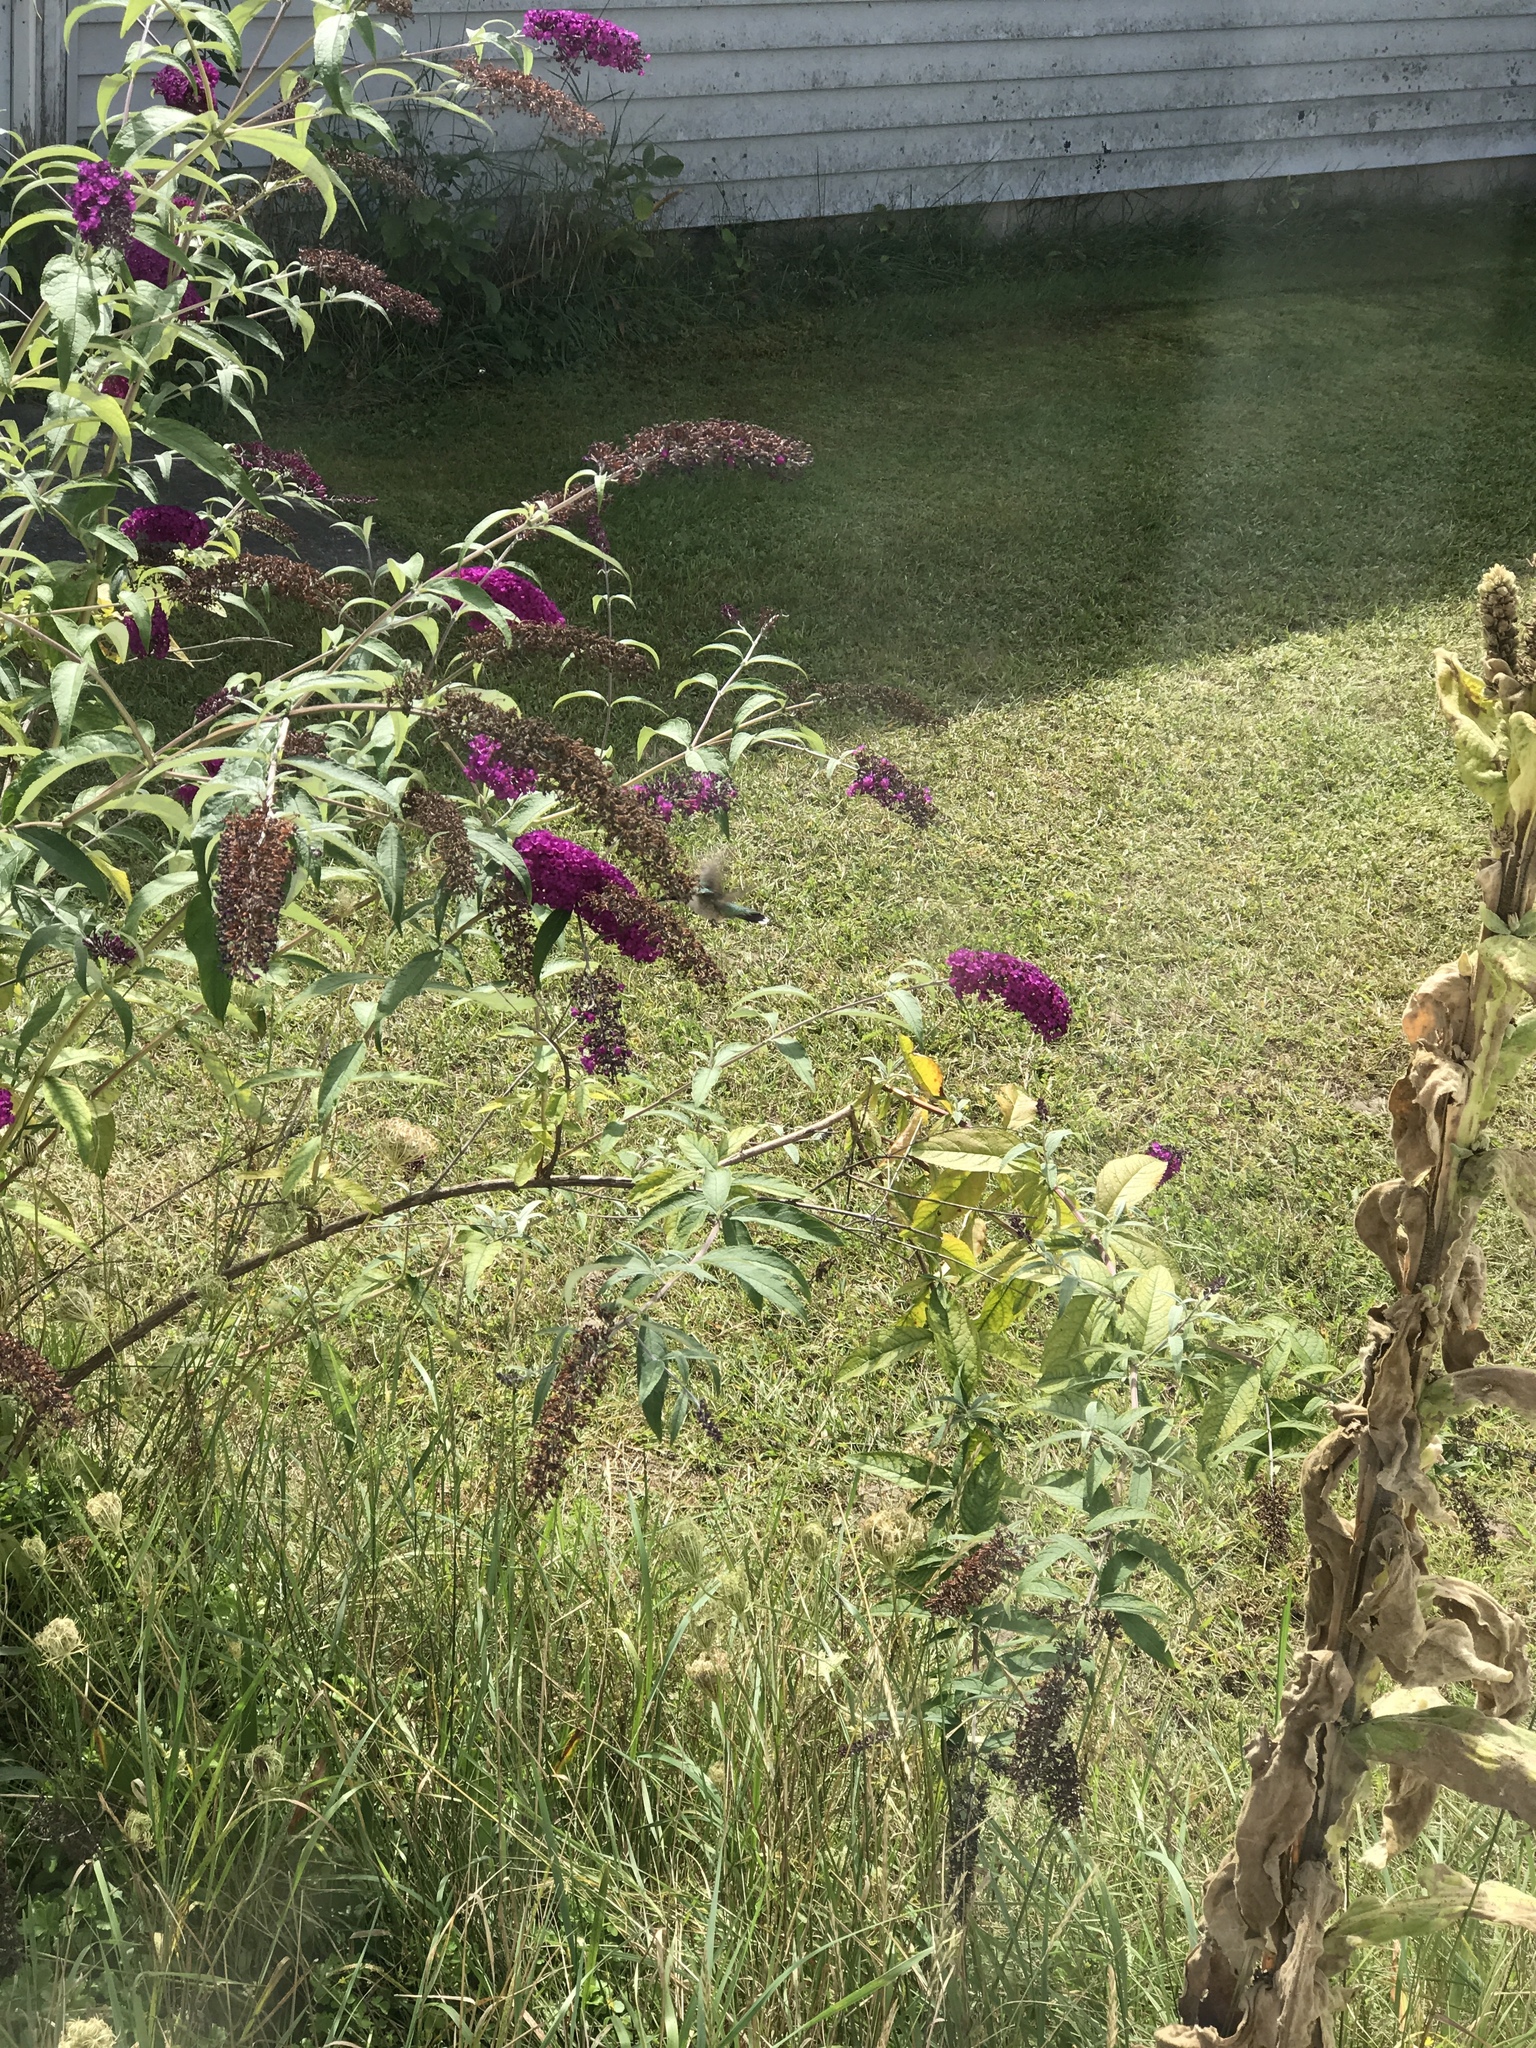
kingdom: Animalia
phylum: Chordata
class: Aves
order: Apodiformes
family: Trochilidae
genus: Archilochus
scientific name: Archilochus colubris
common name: Ruby-throated hummingbird
